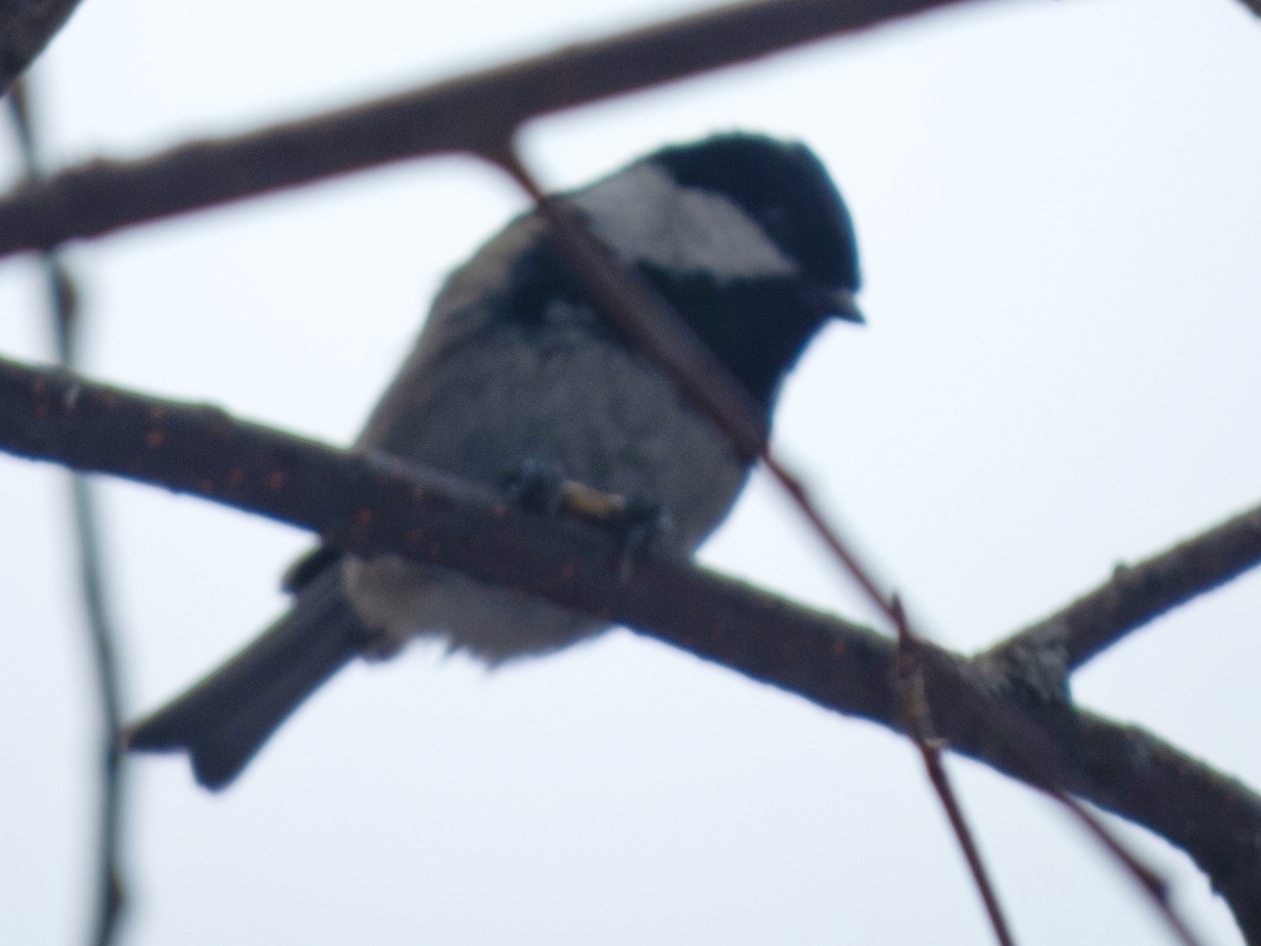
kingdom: Animalia
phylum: Chordata
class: Aves
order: Passeriformes
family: Paridae
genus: Periparus
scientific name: Periparus ater
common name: Coal tit
